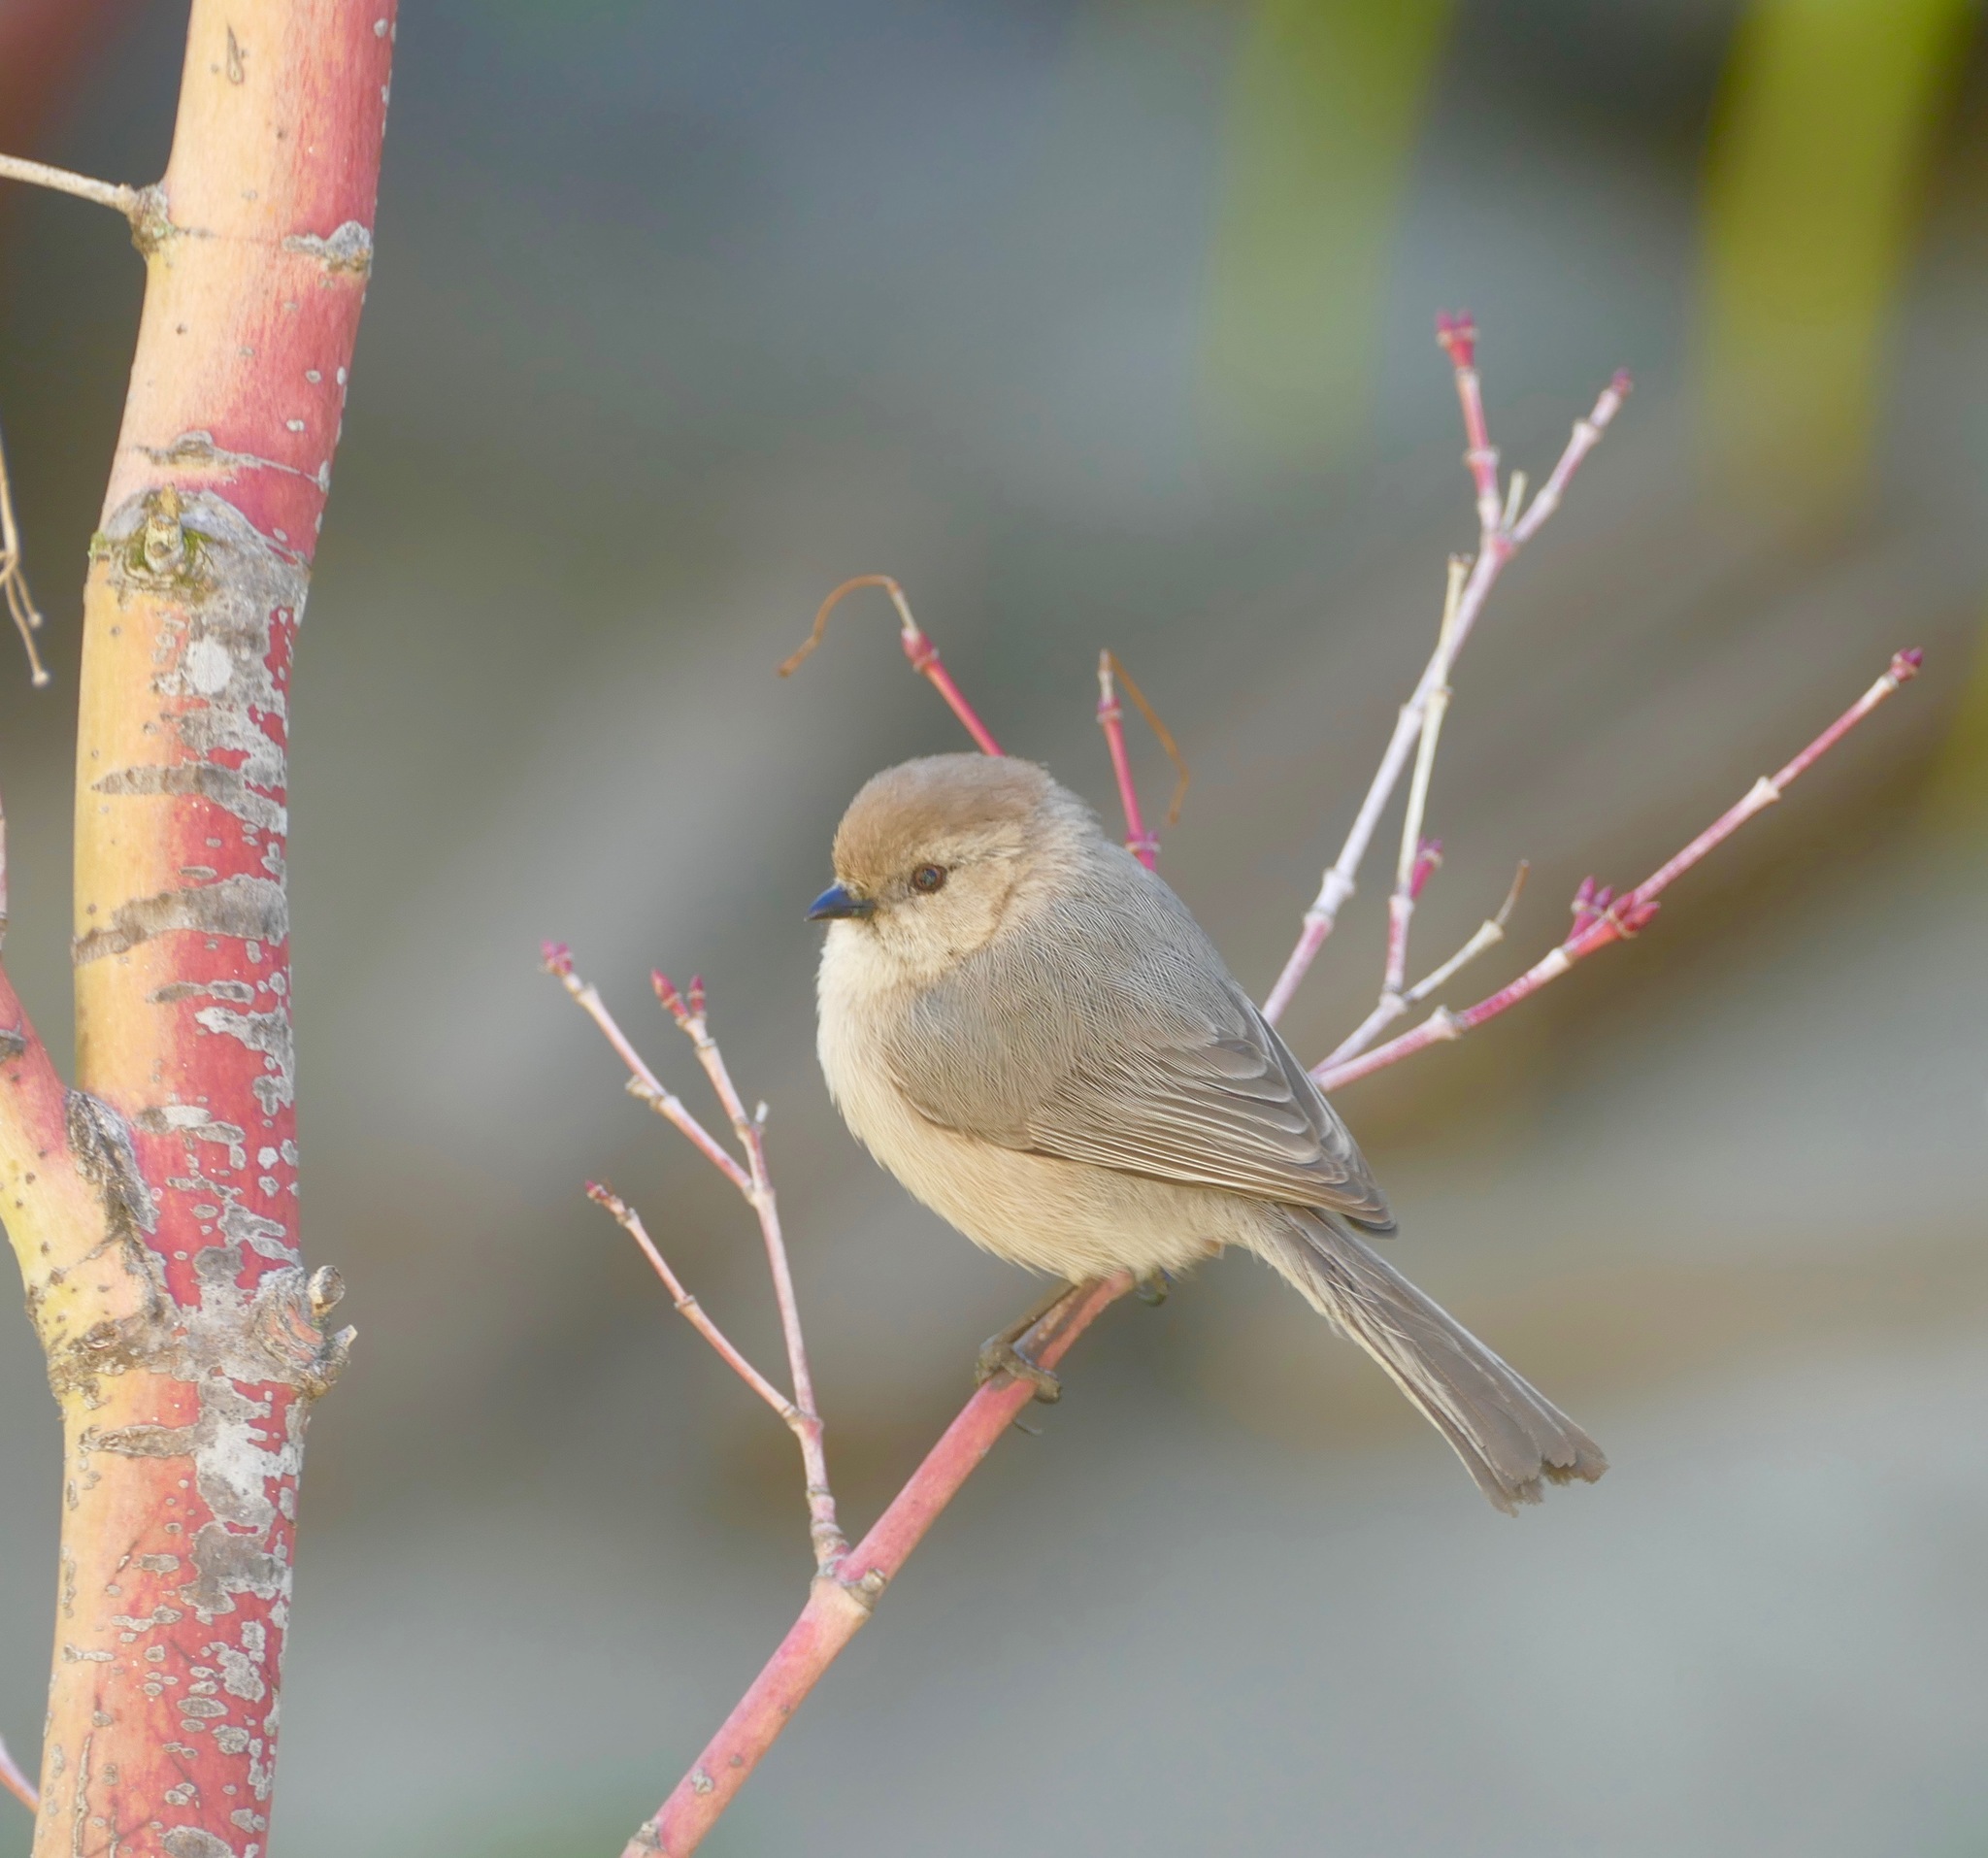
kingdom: Animalia
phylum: Chordata
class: Aves
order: Passeriformes
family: Aegithalidae
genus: Psaltriparus
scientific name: Psaltriparus minimus
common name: American bushtit
